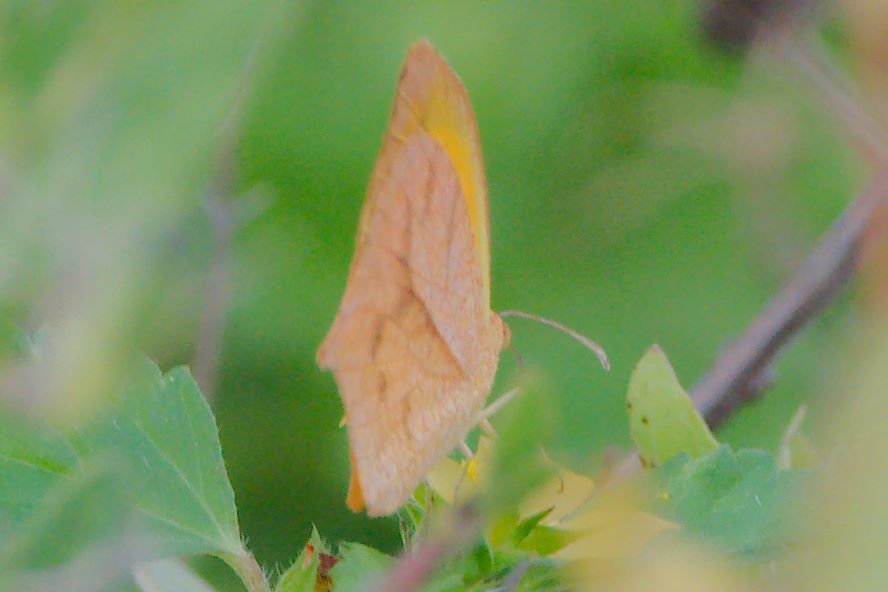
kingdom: Animalia
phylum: Arthropoda
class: Insecta
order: Lepidoptera
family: Pieridae
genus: Pyrisitia
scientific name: Pyrisitia proterpia
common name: Tailed orange
